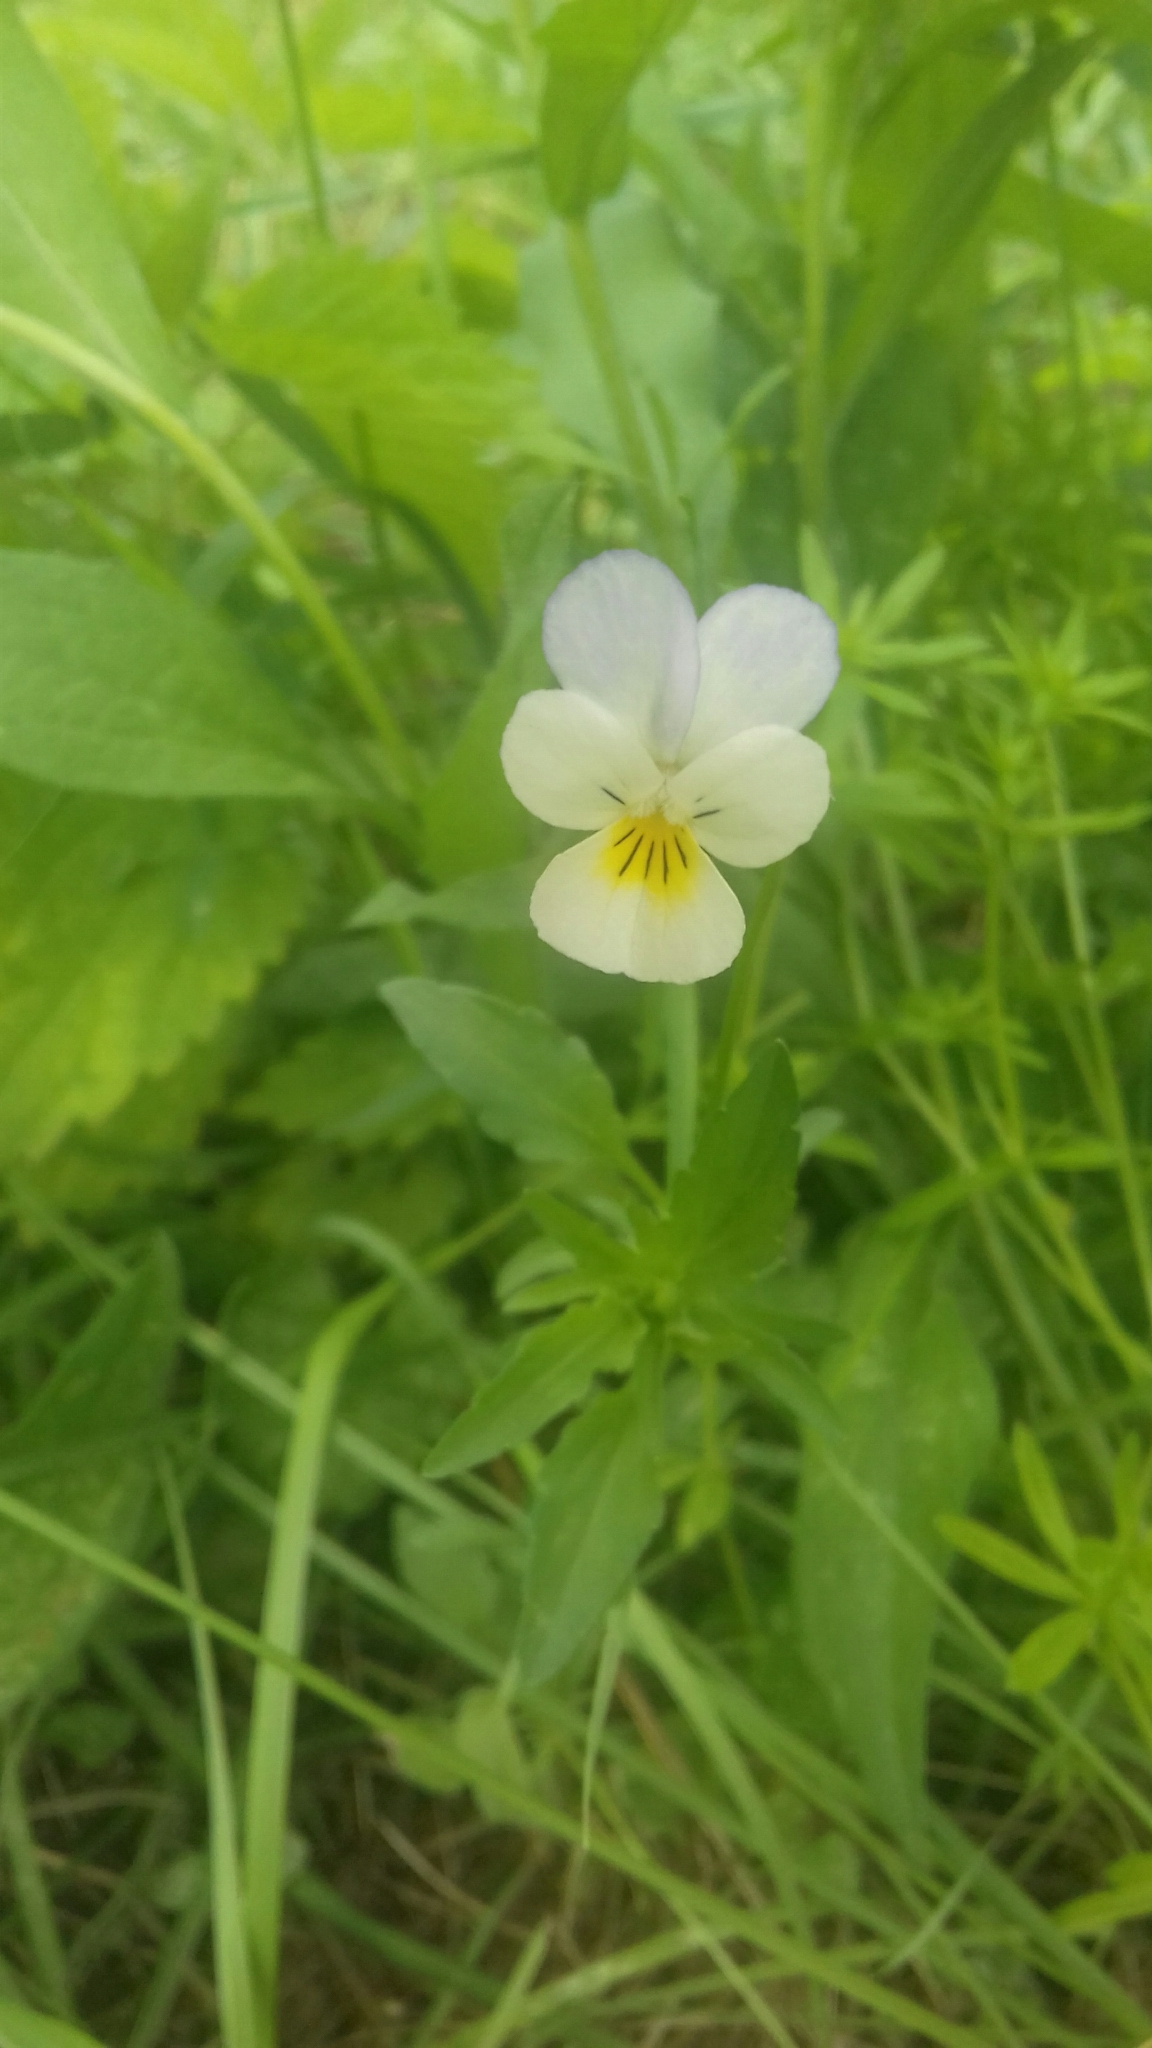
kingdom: Plantae
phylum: Tracheophyta
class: Magnoliopsida
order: Malpighiales
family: Violaceae
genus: Viola
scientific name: Viola tricolor
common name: Pansy
